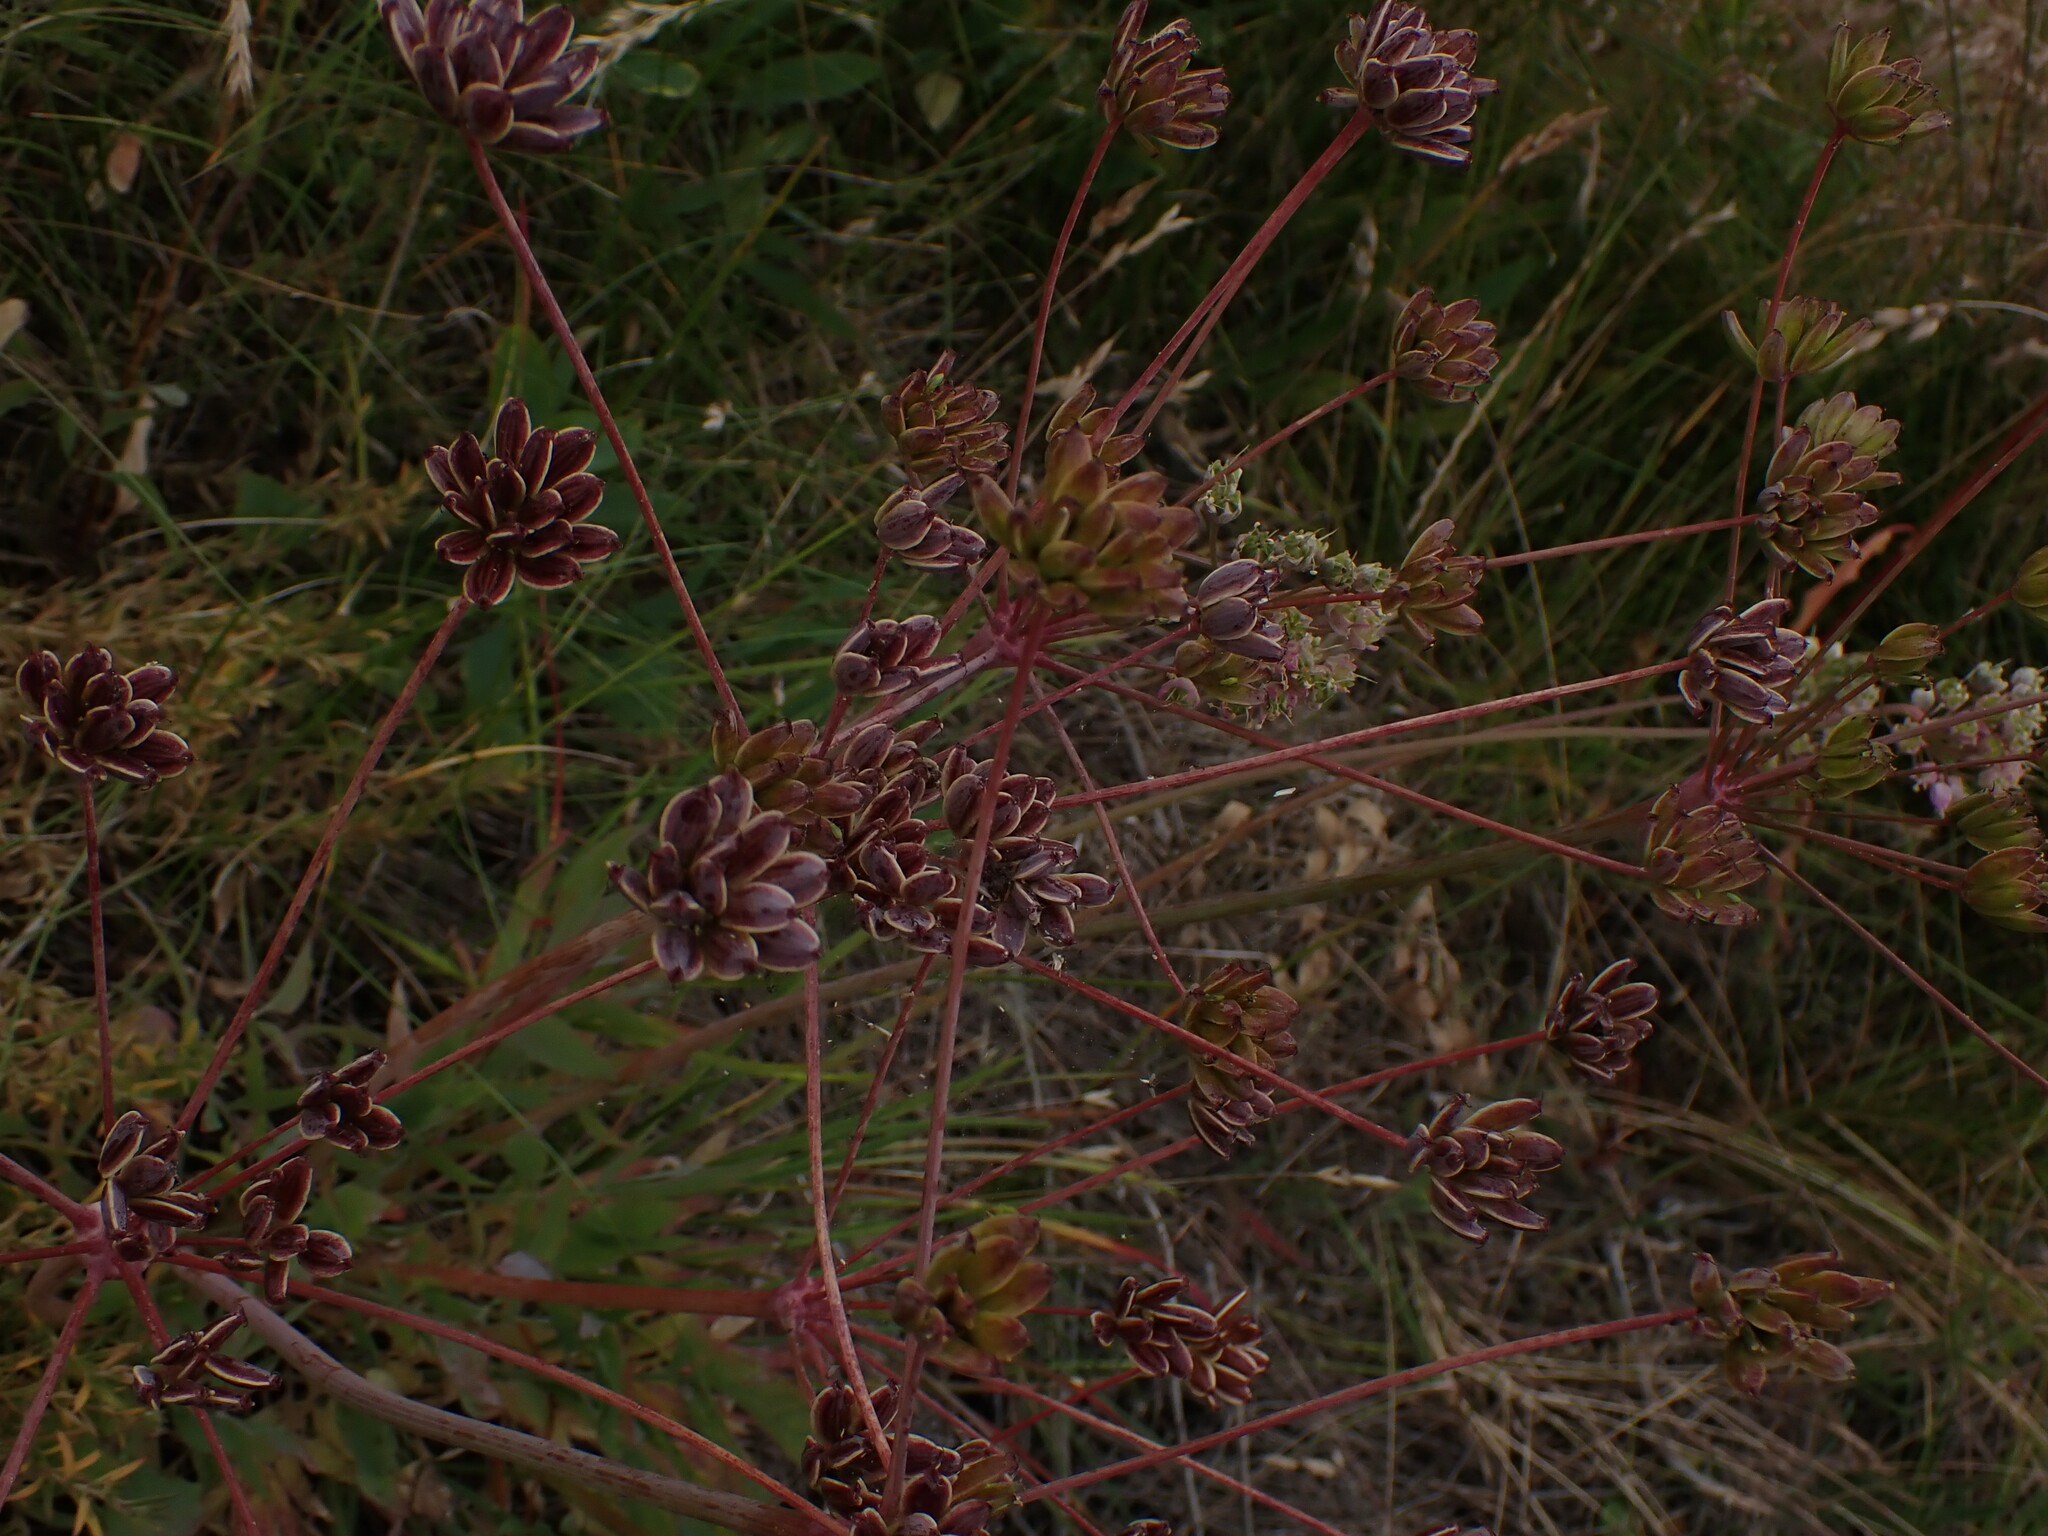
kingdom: Plantae
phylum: Tracheophyta
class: Magnoliopsida
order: Apiales
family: Apiaceae
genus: Lomatium
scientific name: Lomatium nudicaule
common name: Pestle lomatium
